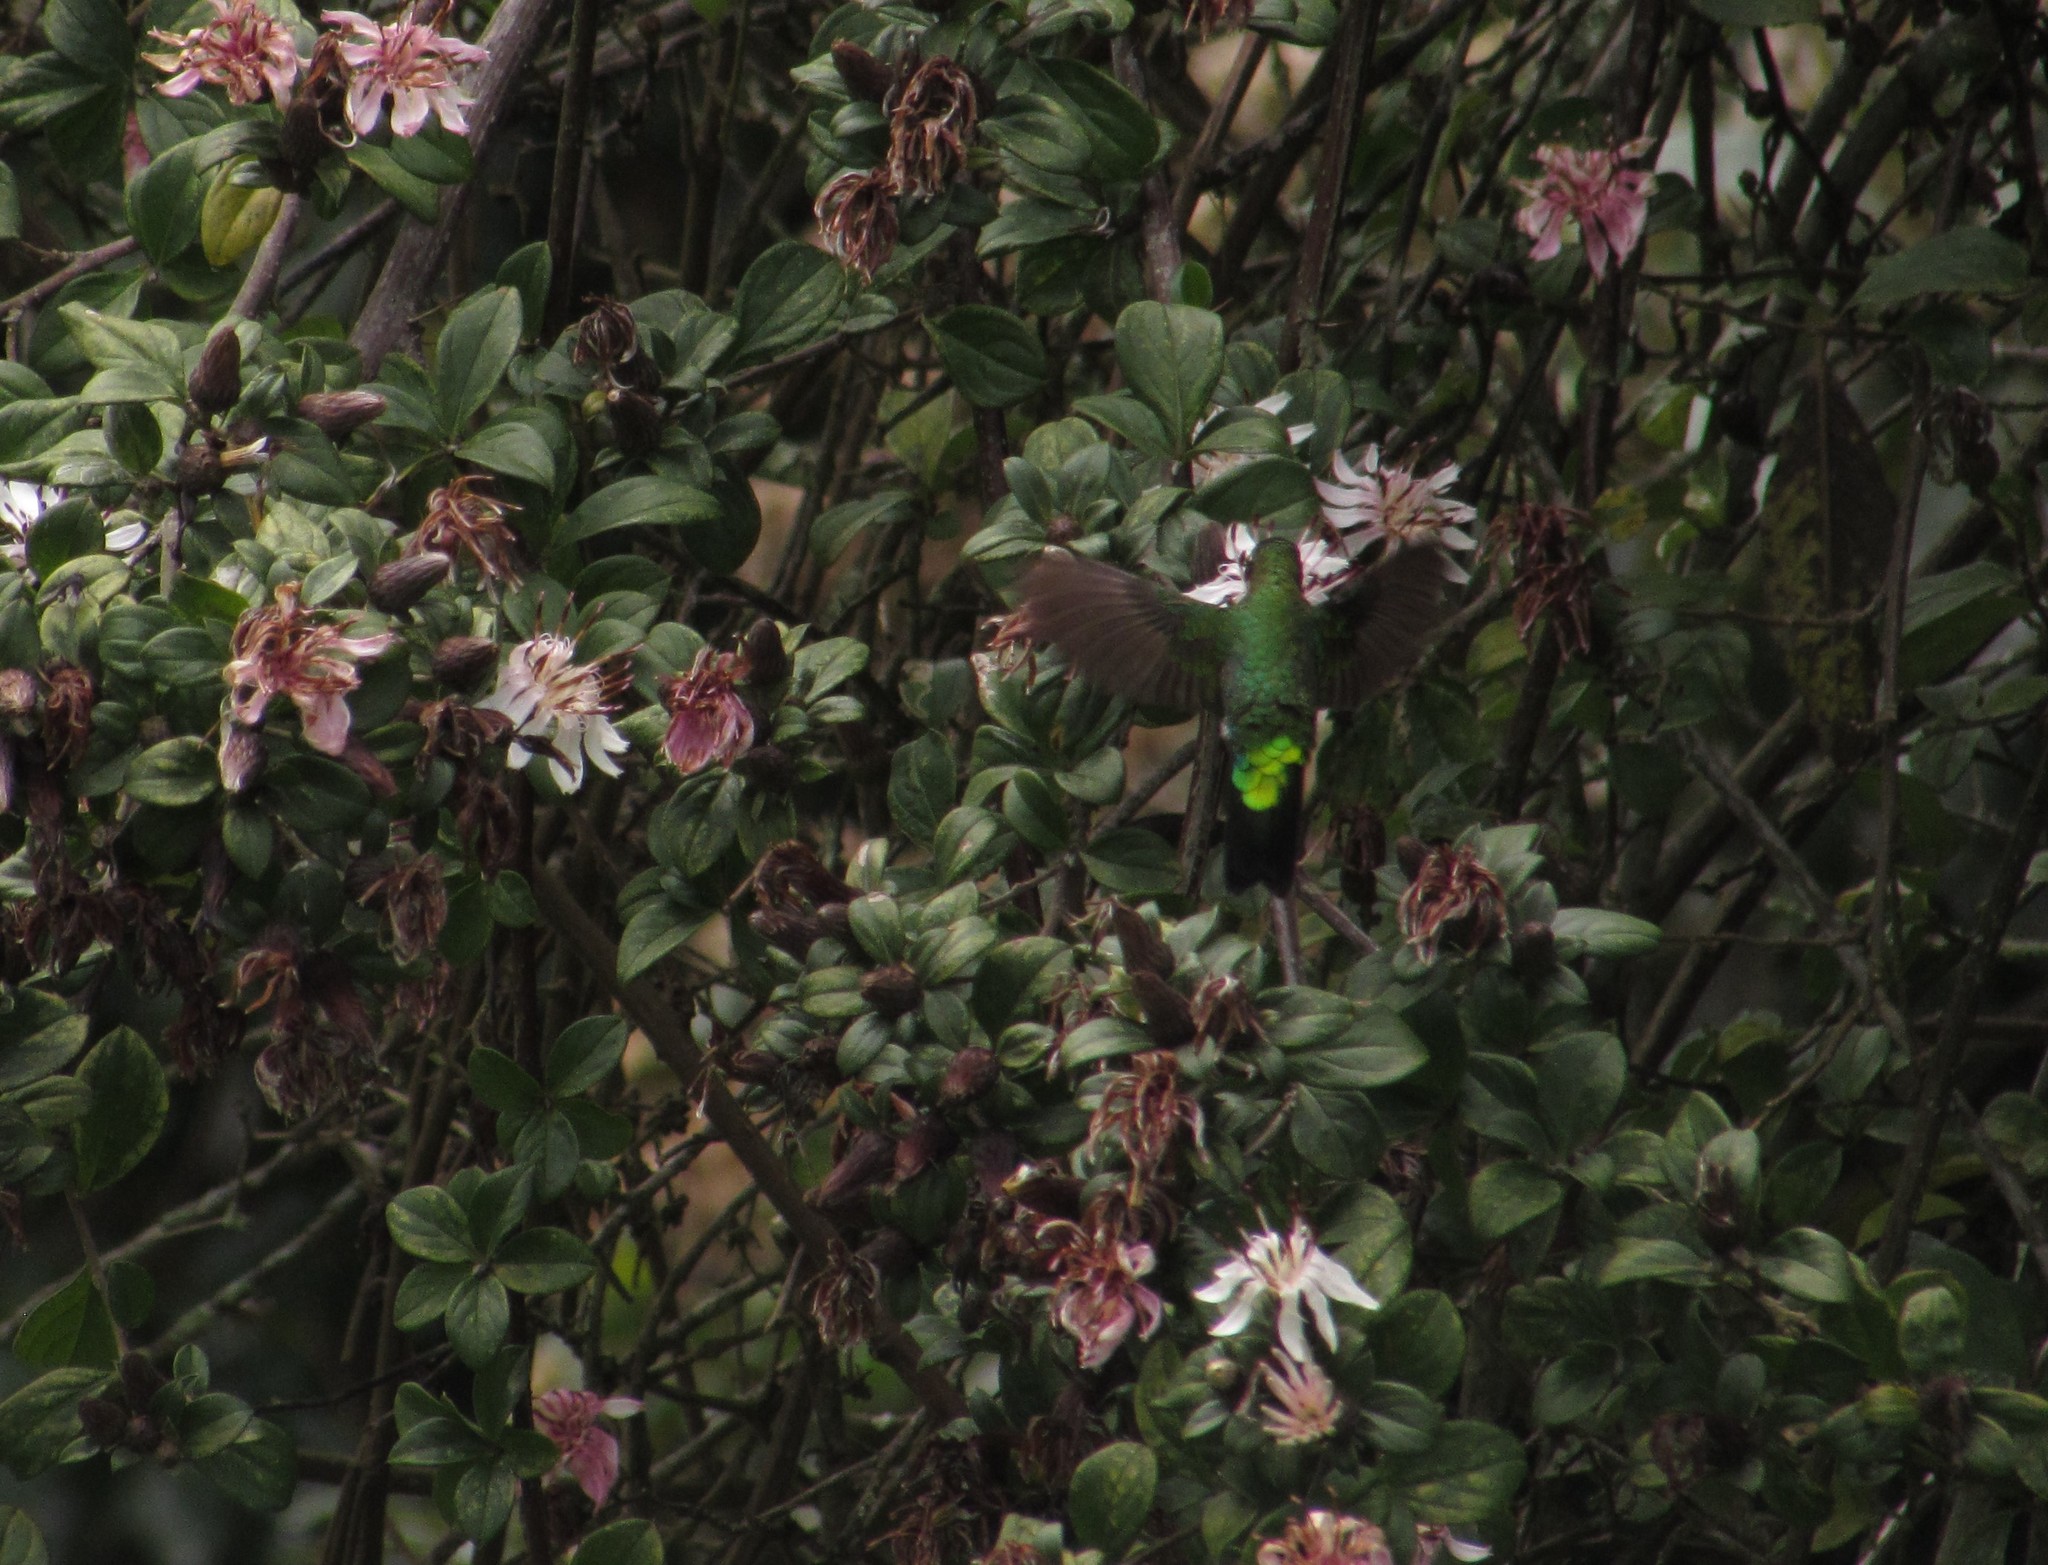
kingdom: Animalia
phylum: Chordata
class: Aves
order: Apodiformes
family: Trochilidae
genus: Eriocnemis
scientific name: Eriocnemis vestita
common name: Glowing puffleg
